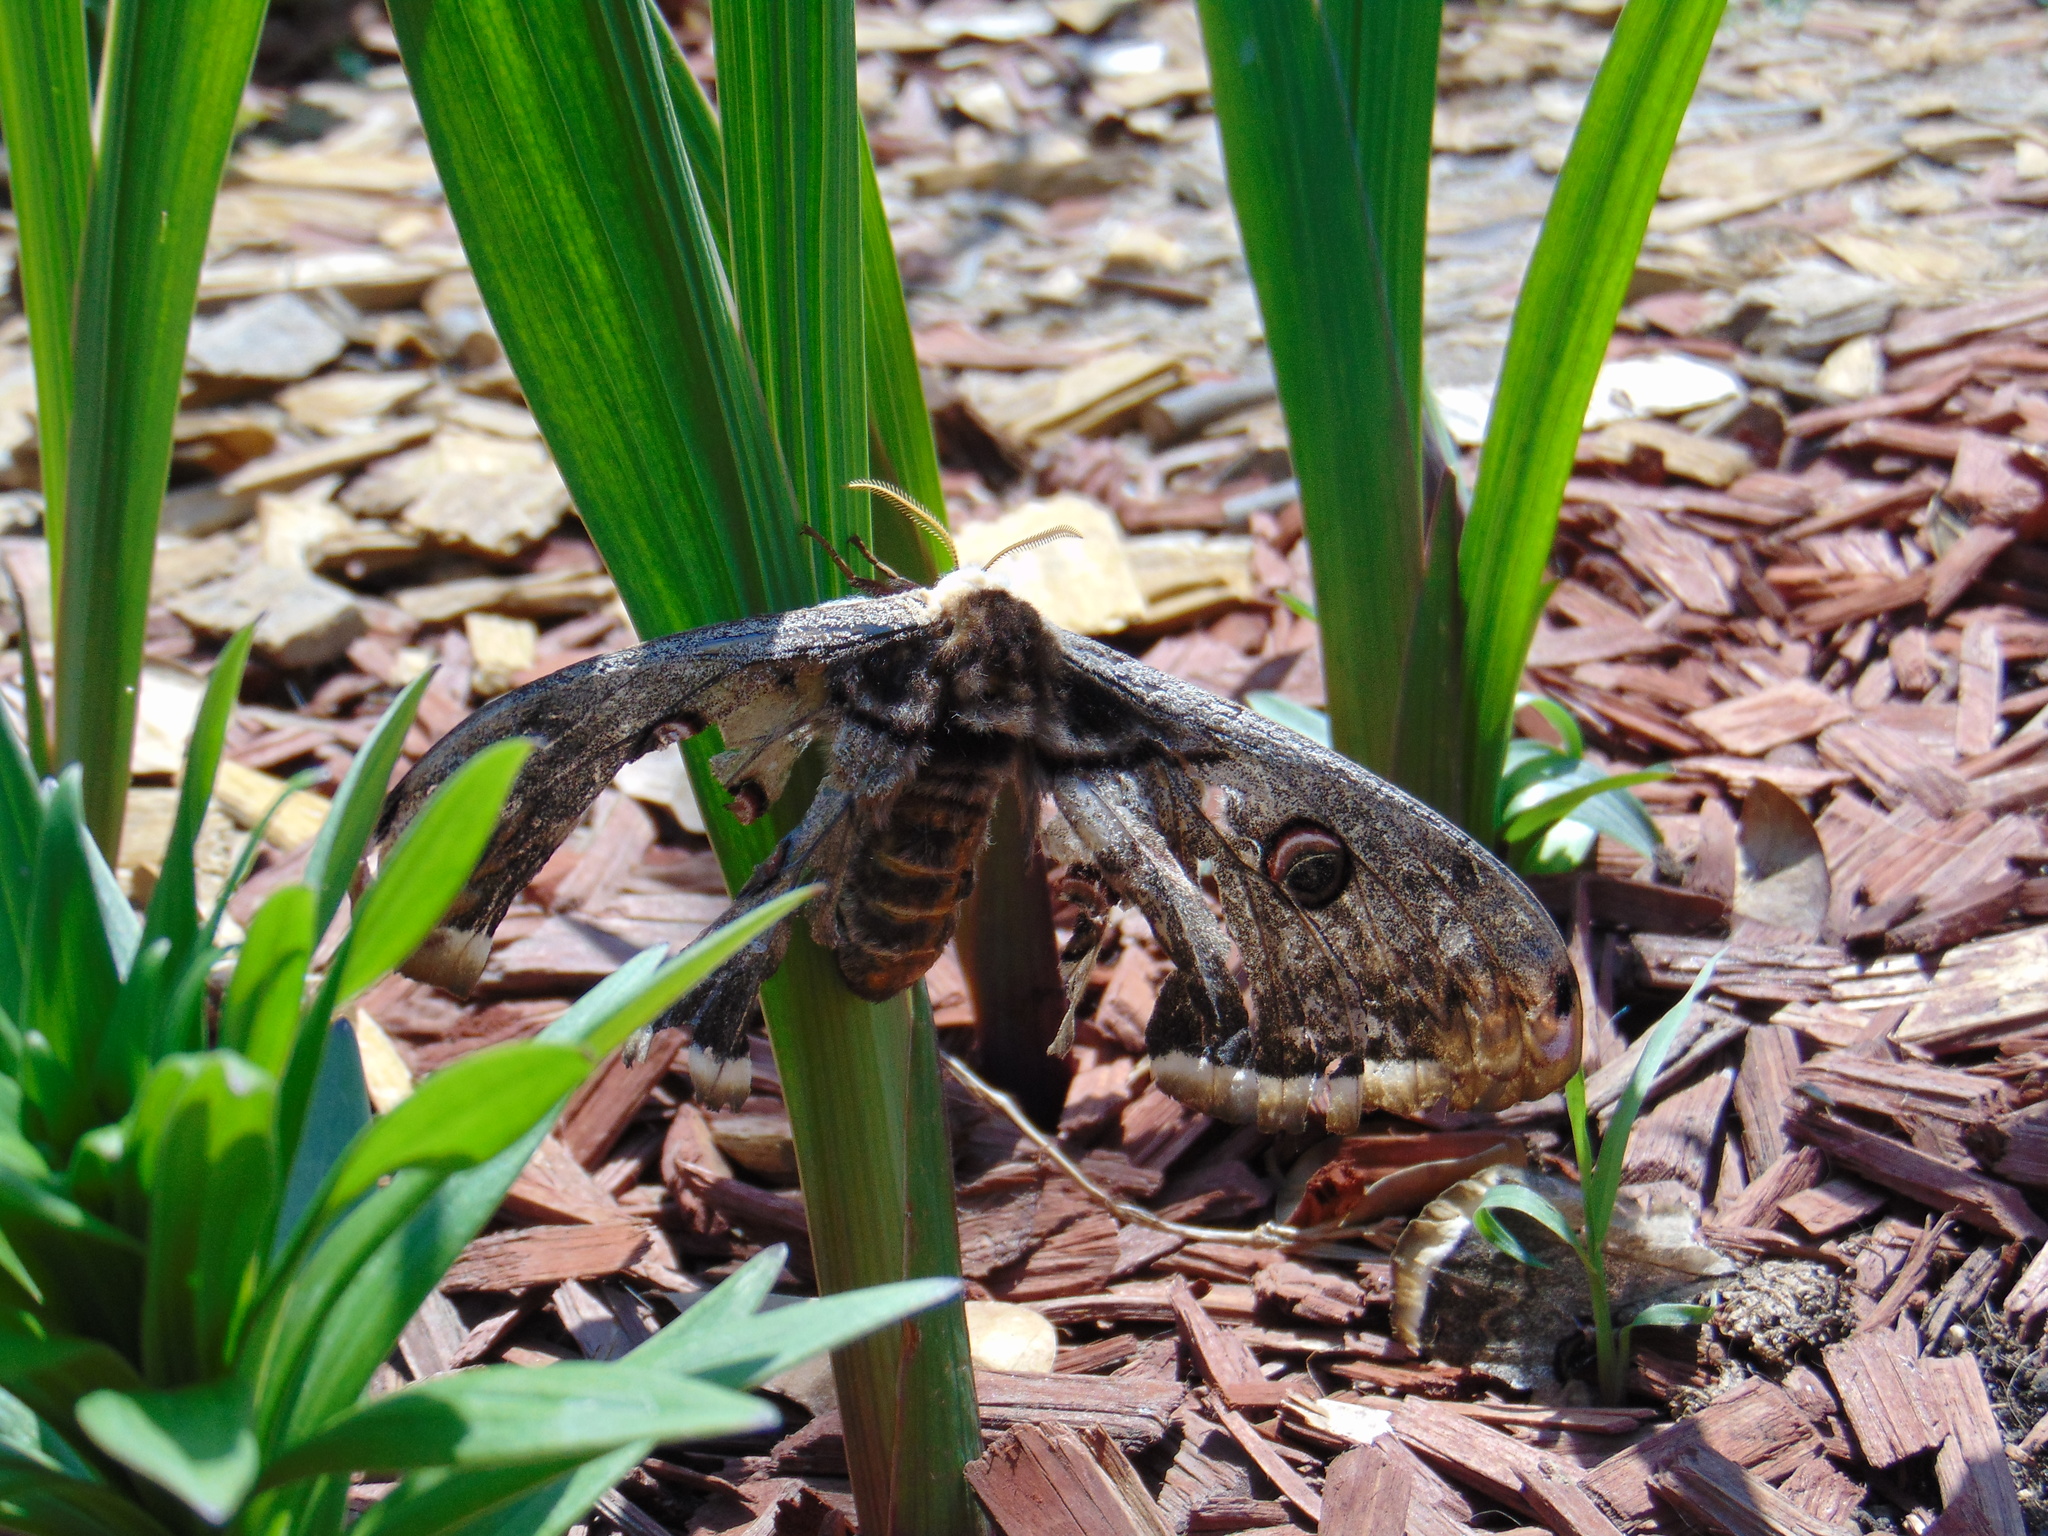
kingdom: Animalia
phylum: Arthropoda
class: Insecta
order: Lepidoptera
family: Saturniidae
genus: Saturnia
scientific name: Saturnia pyri
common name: Great peacock moth
